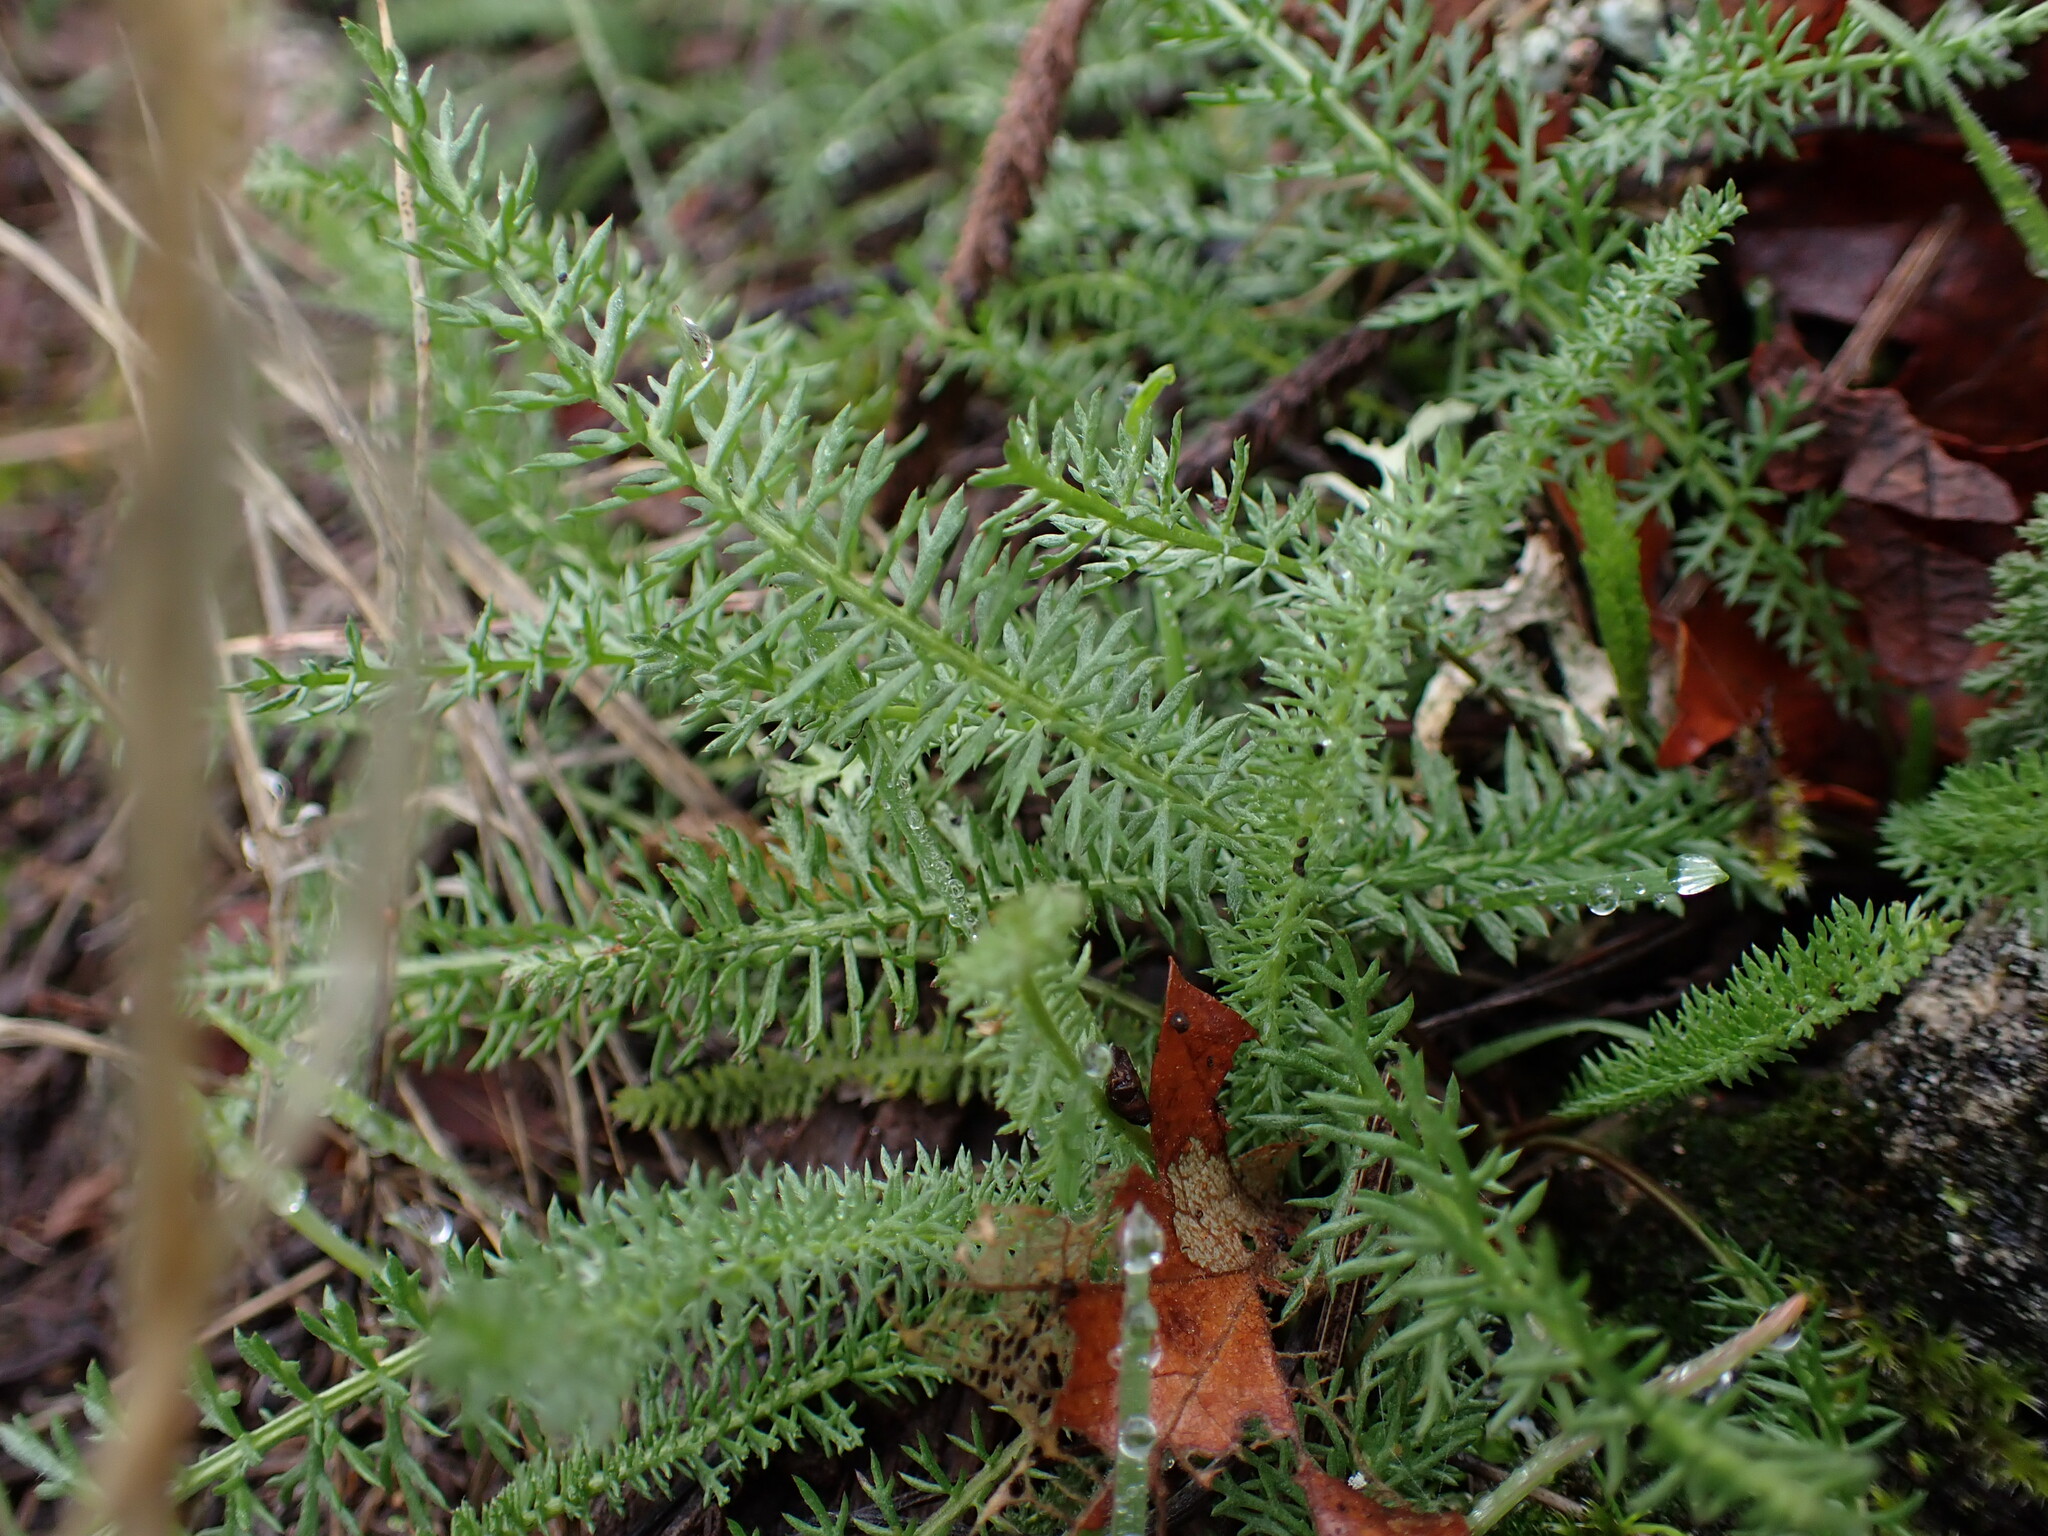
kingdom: Plantae
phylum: Tracheophyta
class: Magnoliopsida
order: Asterales
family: Asteraceae
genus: Achillea
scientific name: Achillea millefolium
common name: Yarrow
